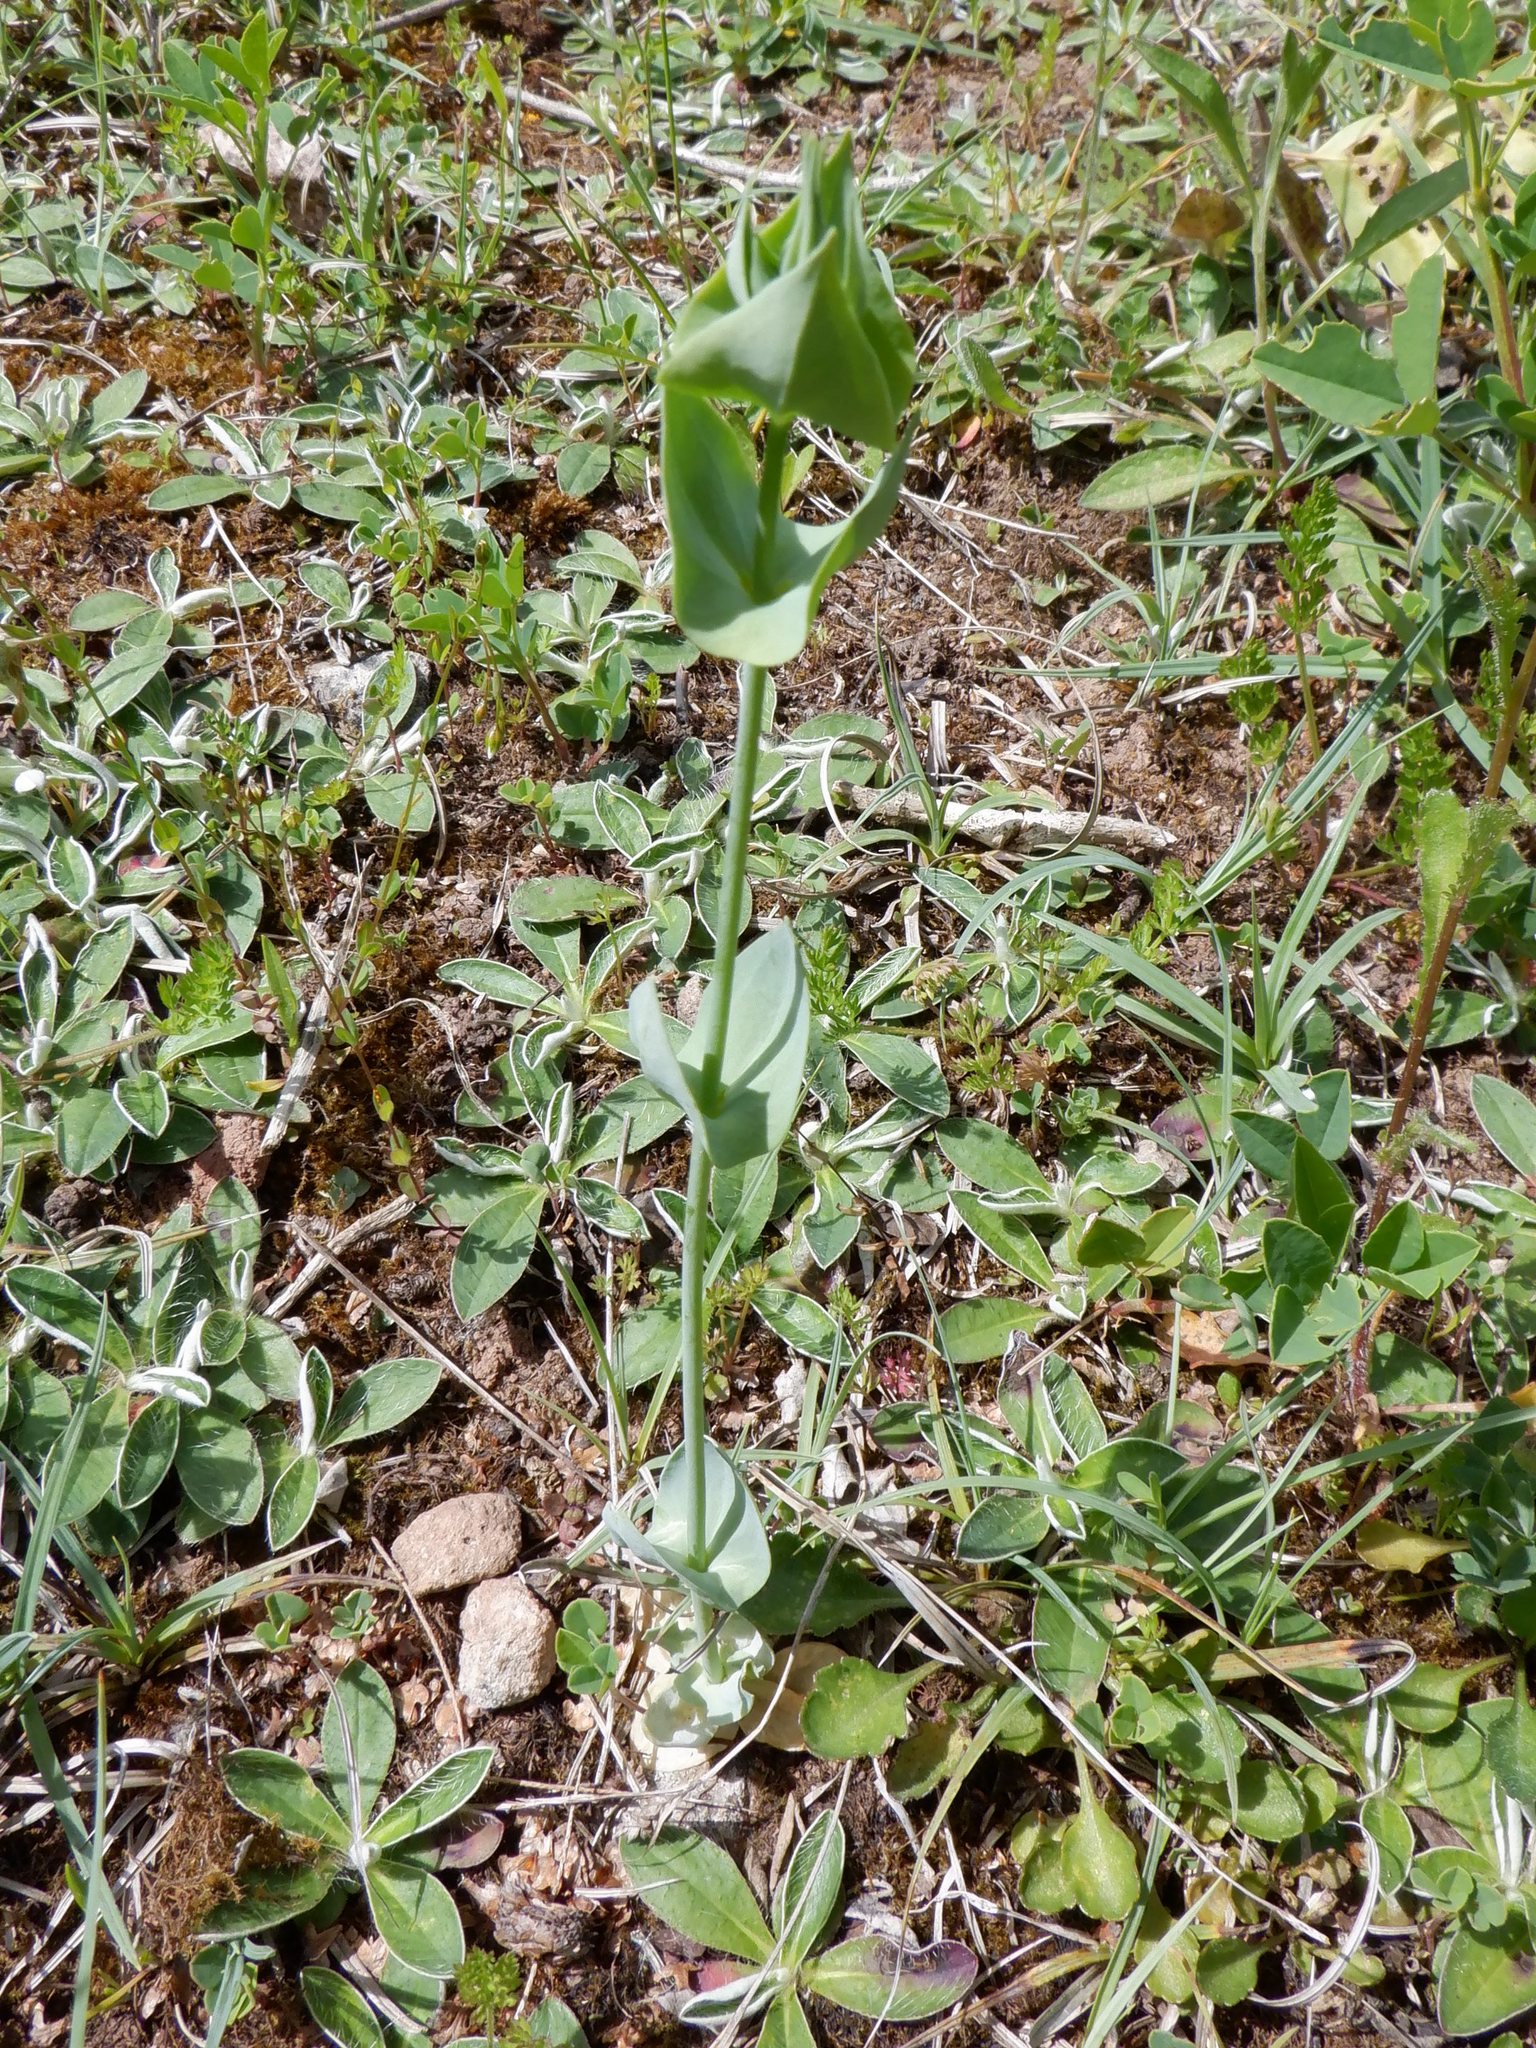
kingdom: Plantae
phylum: Tracheophyta
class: Magnoliopsida
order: Gentianales
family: Gentianaceae
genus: Blackstonia
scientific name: Blackstonia perfoliata
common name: Yellow-wort
